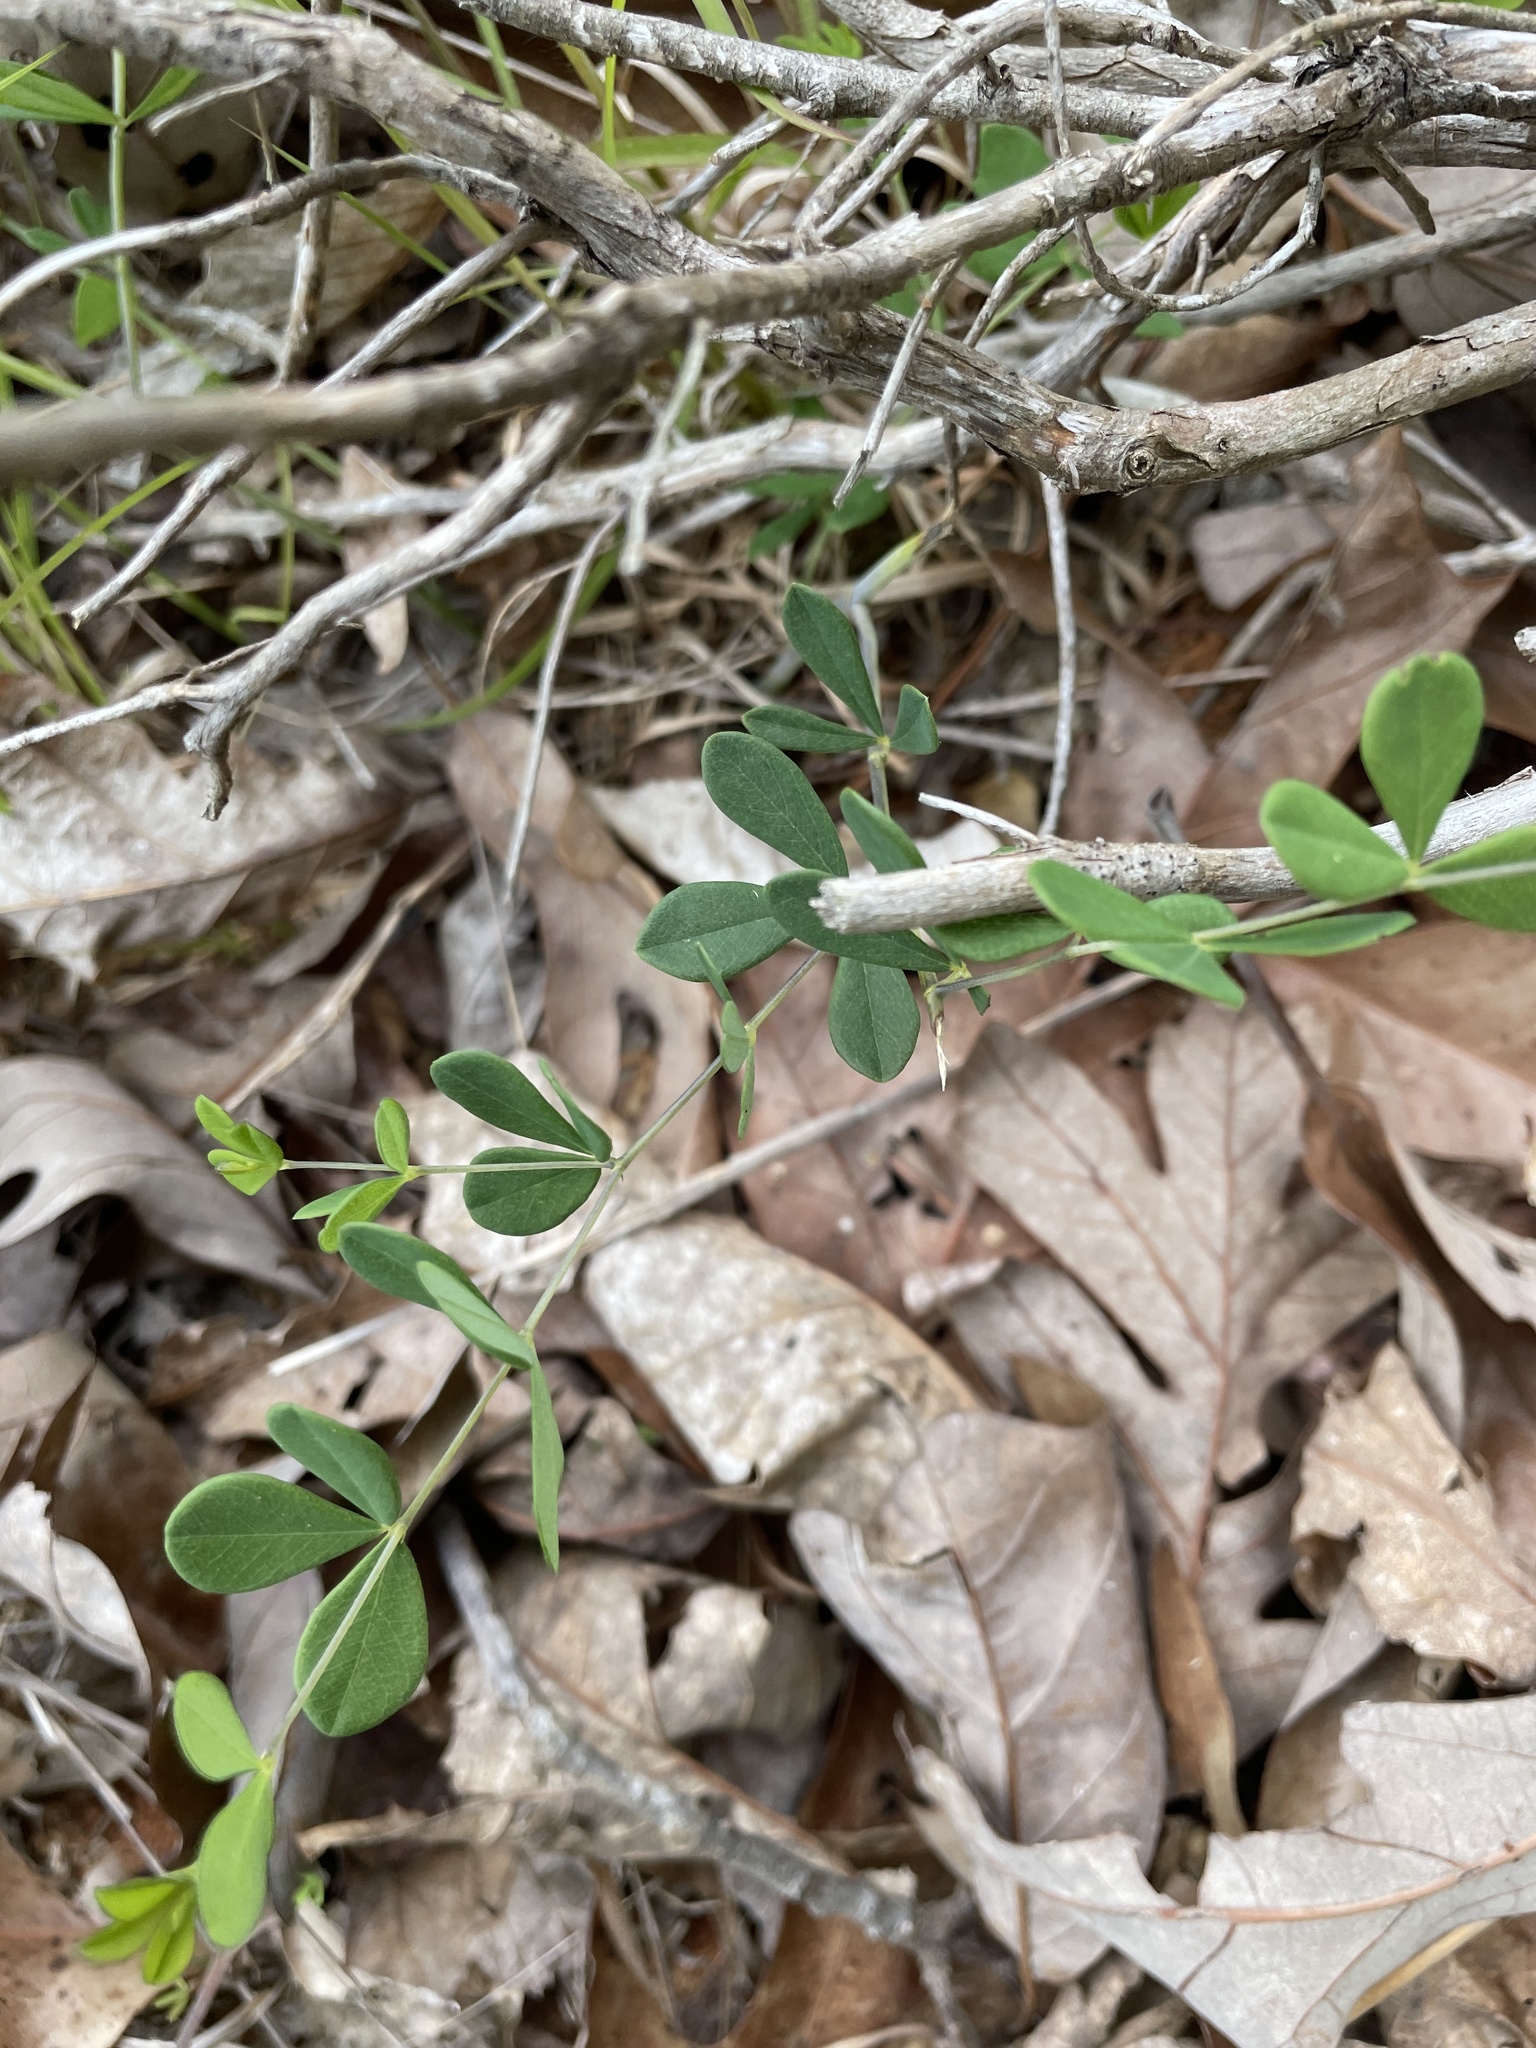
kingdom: Plantae
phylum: Tracheophyta
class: Magnoliopsida
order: Fabales
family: Fabaceae
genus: Baptisia
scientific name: Baptisia tinctoria
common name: Wild indigo
